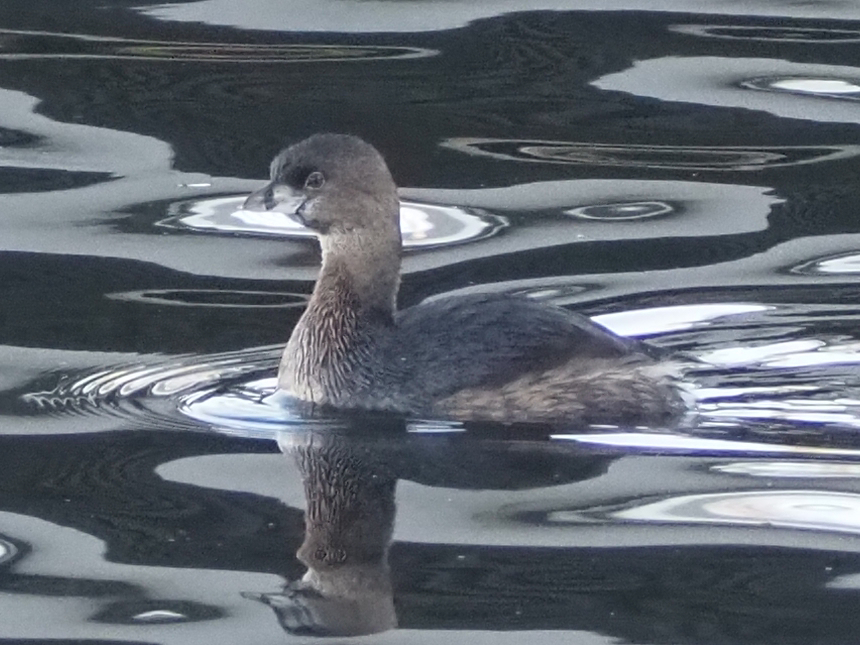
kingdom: Animalia
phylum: Chordata
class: Aves
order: Podicipediformes
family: Podicipedidae
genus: Podilymbus
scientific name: Podilymbus podiceps
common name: Pied-billed grebe
